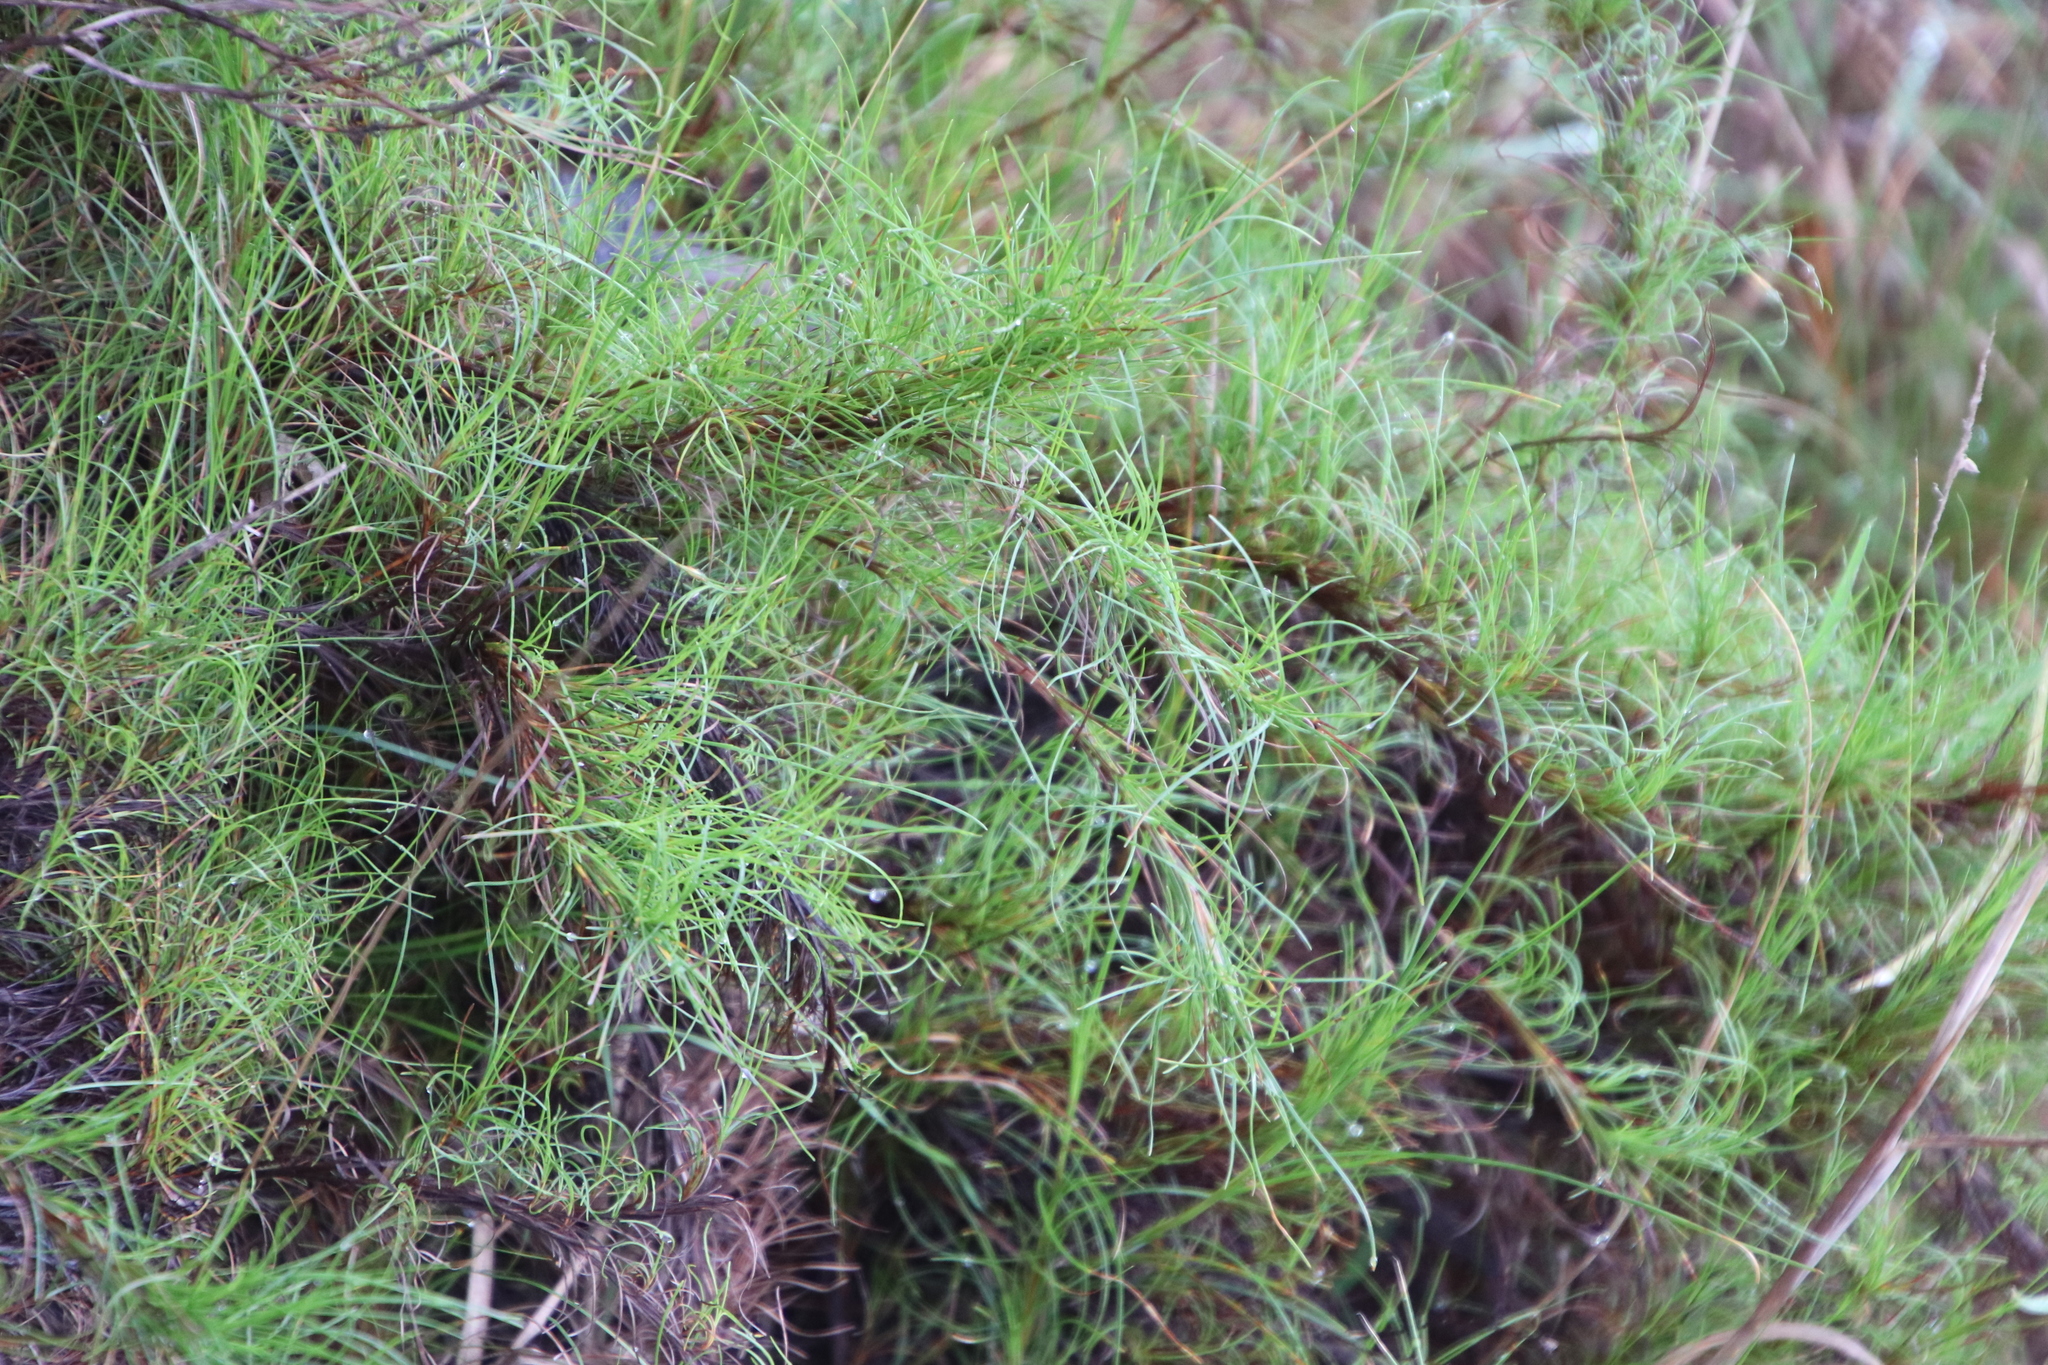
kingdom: Plantae
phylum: Tracheophyta
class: Liliopsida
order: Poales
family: Cyperaceae
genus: Ficinia
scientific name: Ficinia trichodes
